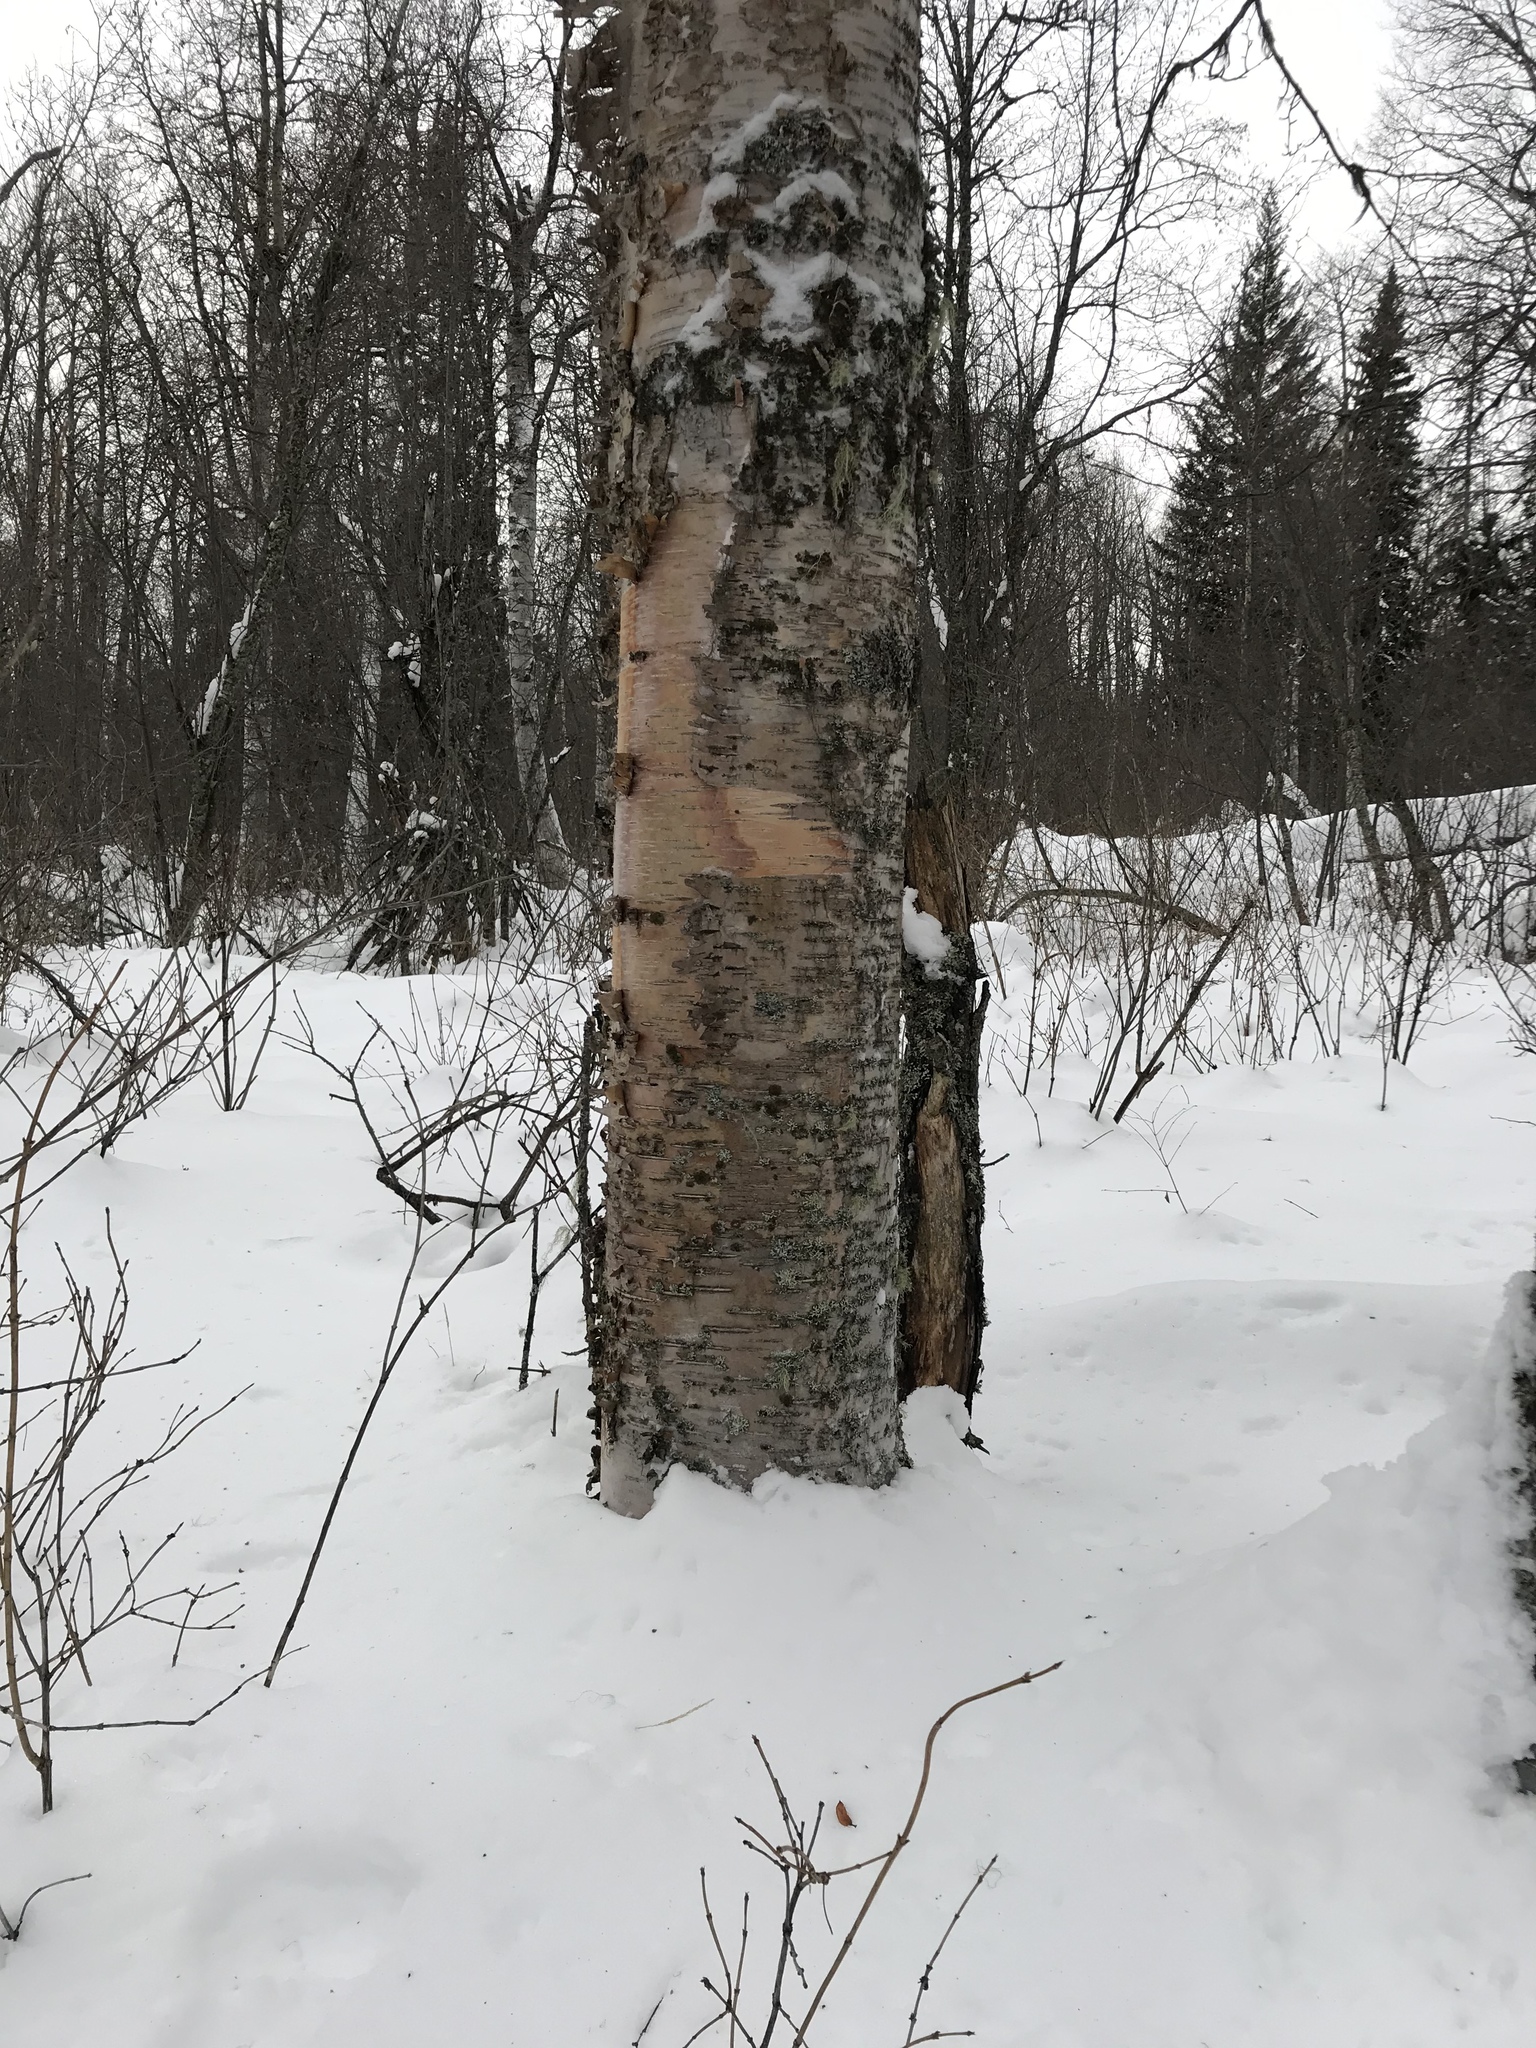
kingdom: Plantae
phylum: Tracheophyta
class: Magnoliopsida
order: Fagales
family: Betulaceae
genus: Betula
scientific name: Betula papyrifera
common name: Paper birch
